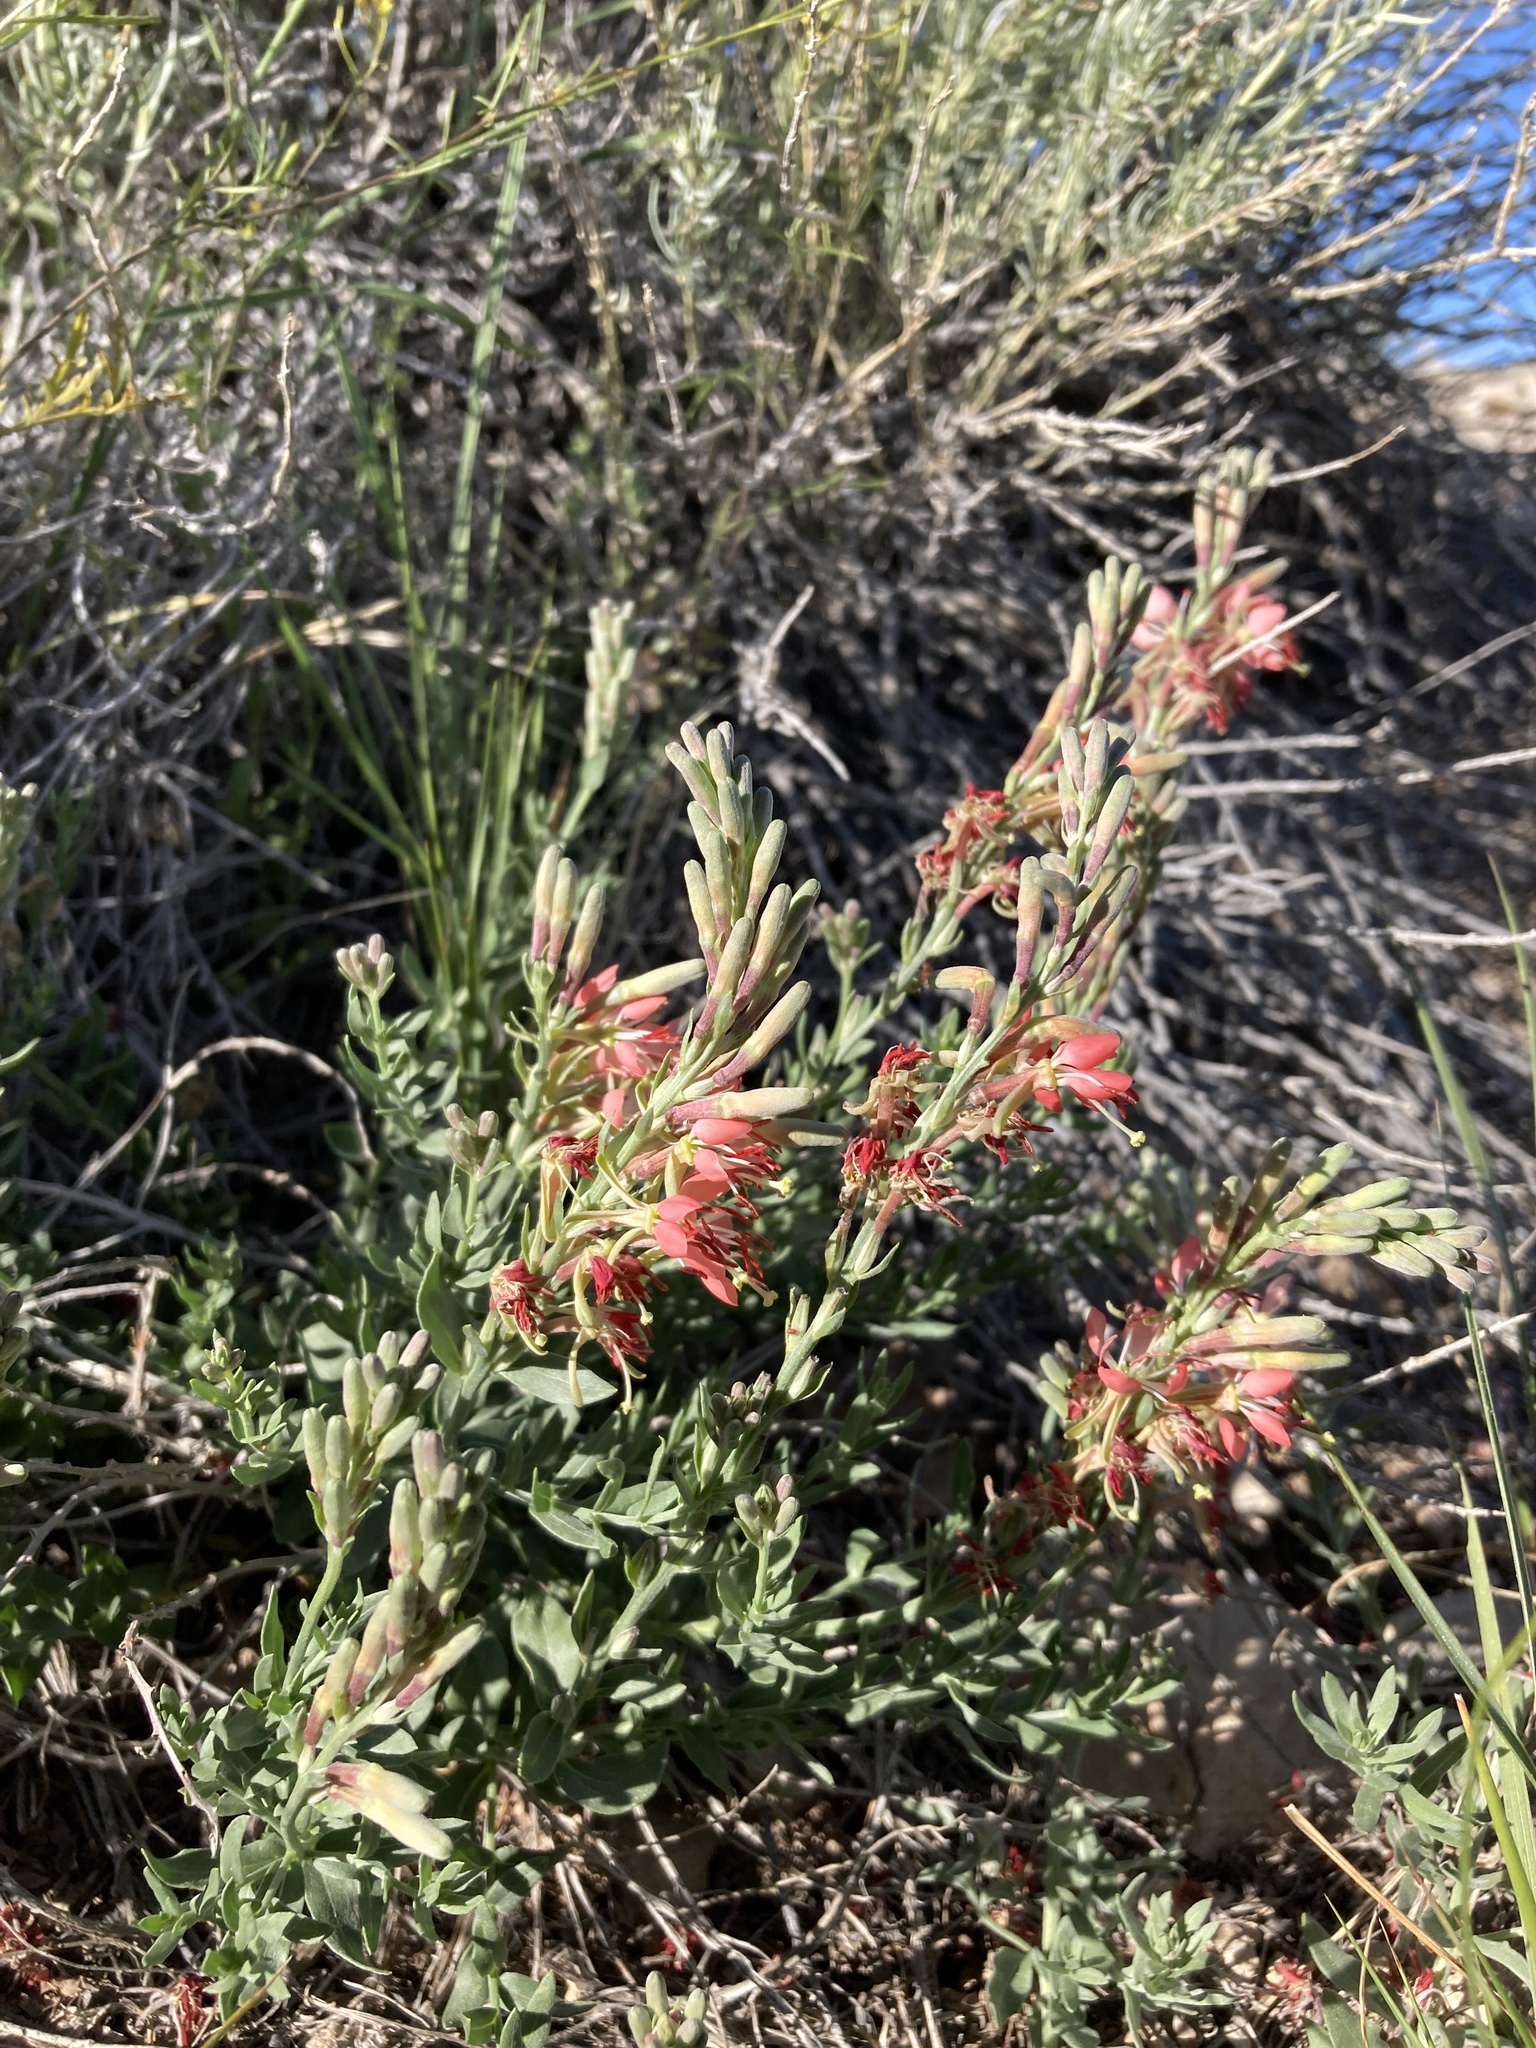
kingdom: Plantae
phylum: Tracheophyta
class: Magnoliopsida
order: Myrtales
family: Onagraceae
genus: Oenothera
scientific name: Oenothera suffrutescens
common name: Scarlet beeblossom
